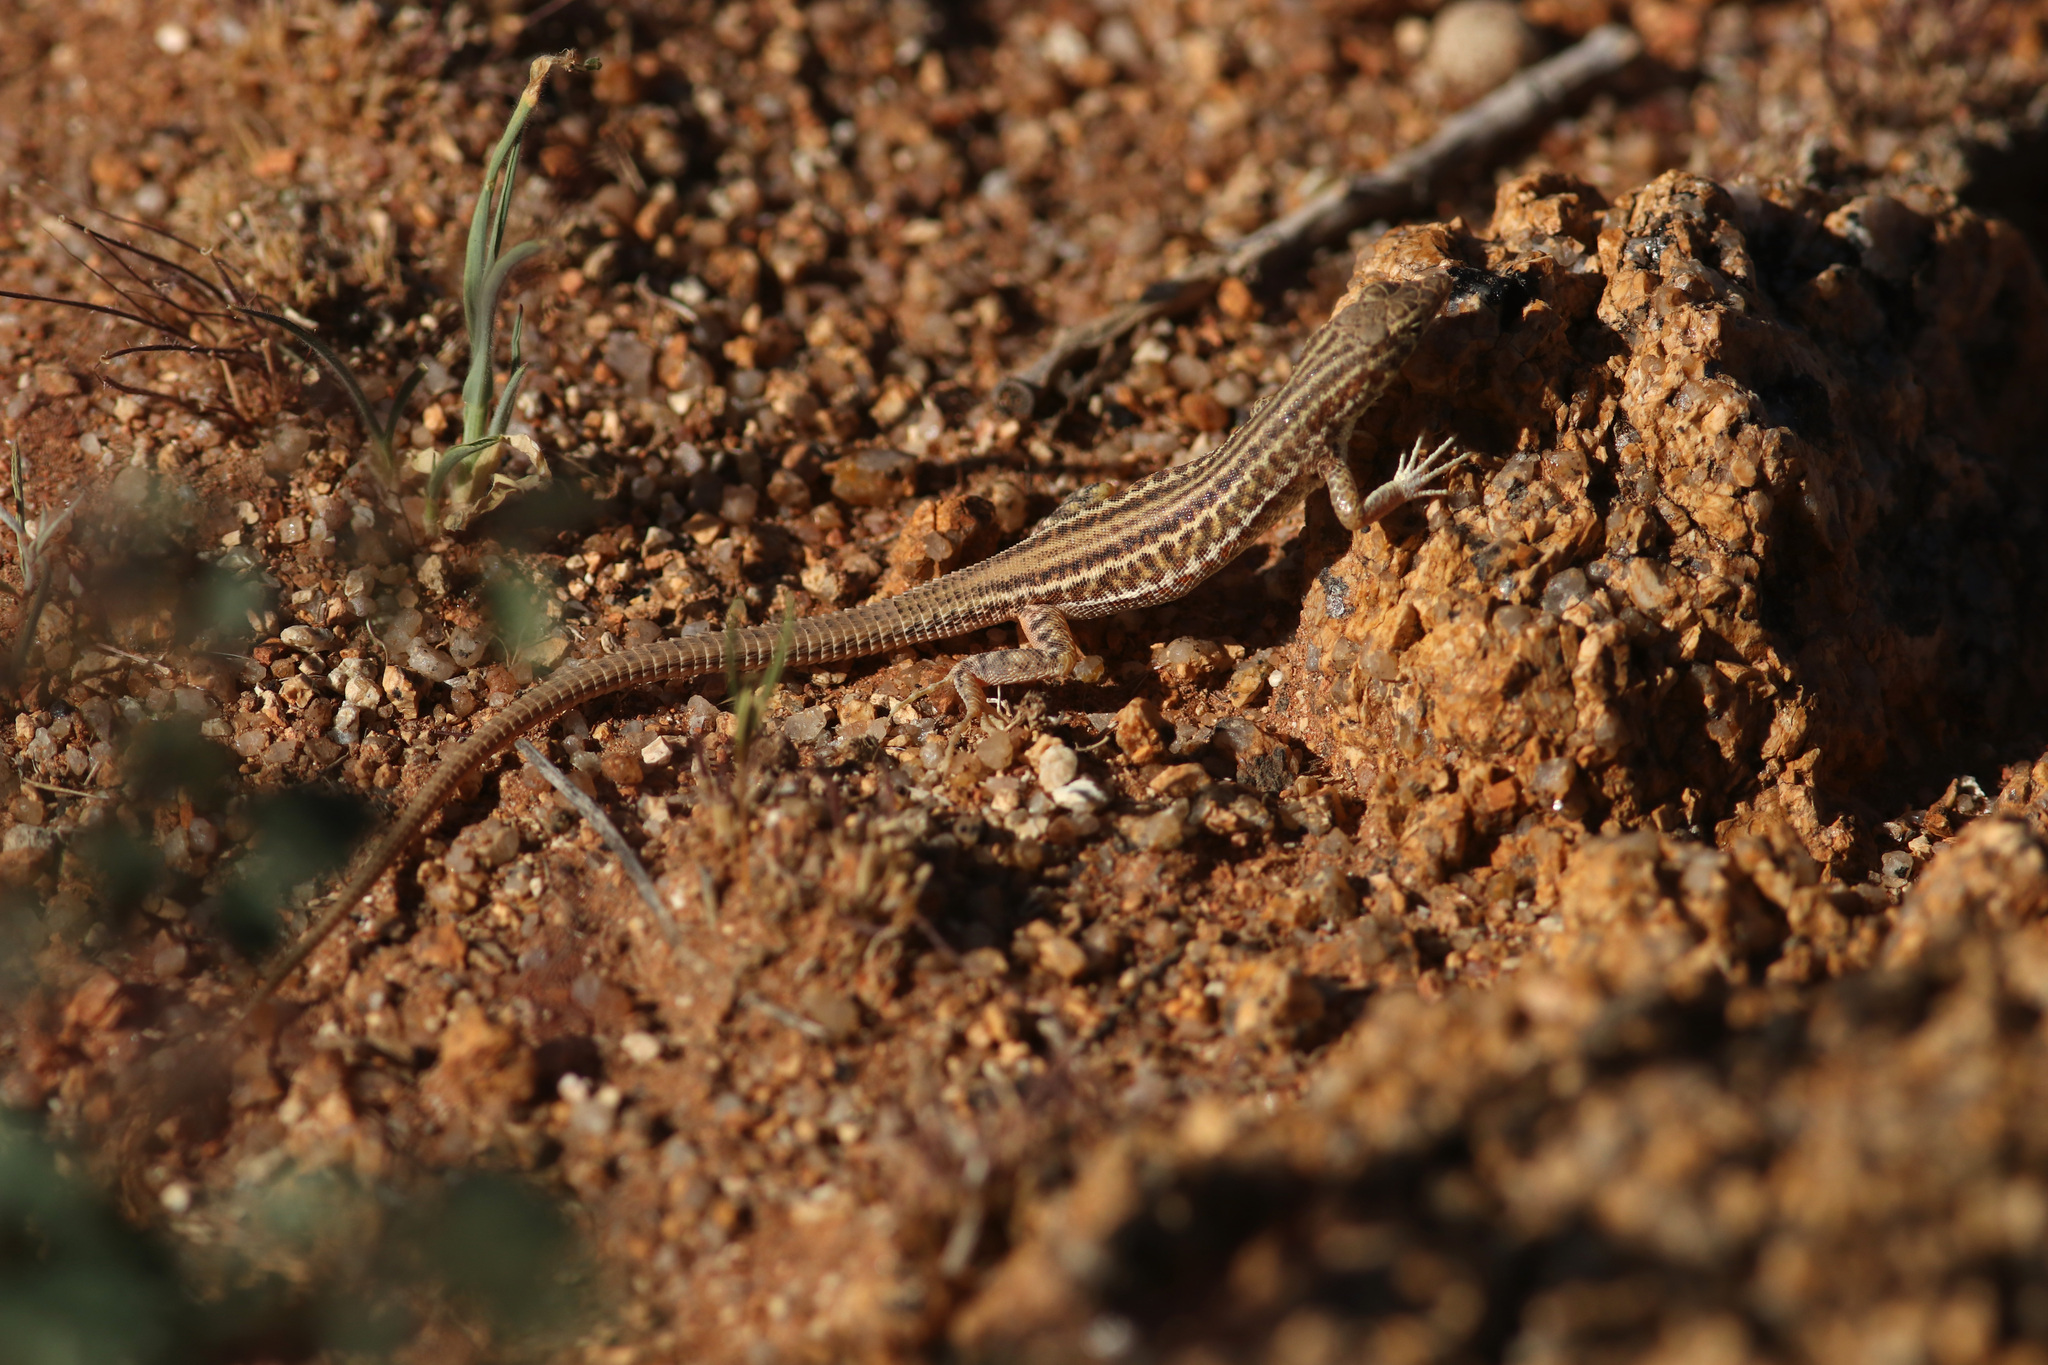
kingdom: Animalia
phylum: Chordata
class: Squamata
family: Lacertidae
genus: Pedioplanis
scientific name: Pedioplanis namaquensis
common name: Namaqua sand lizard
